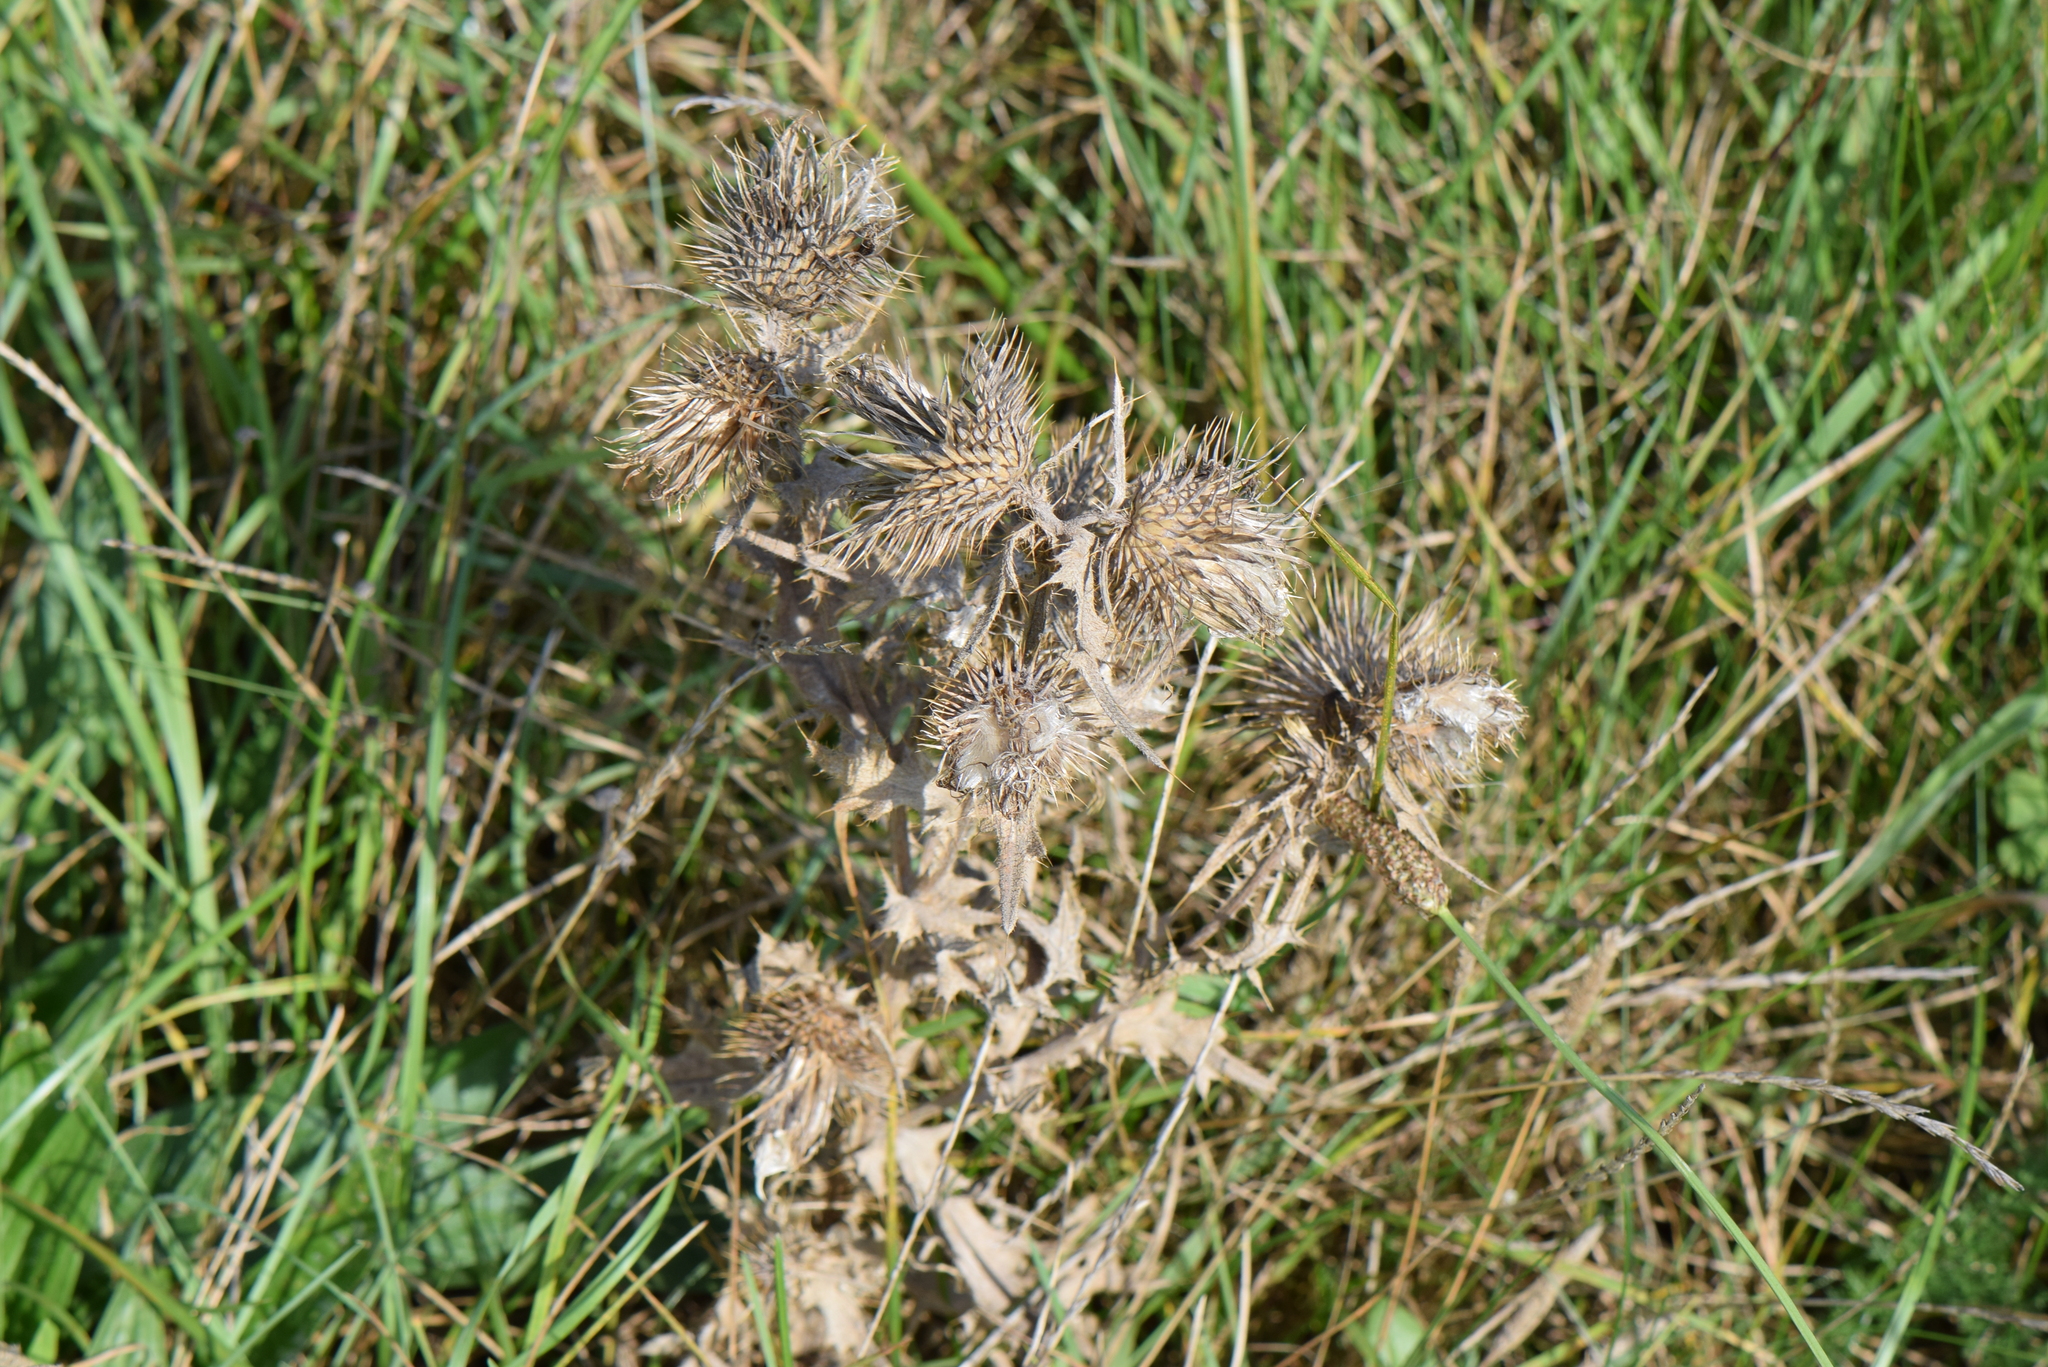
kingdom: Plantae
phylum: Tracheophyta
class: Magnoliopsida
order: Asterales
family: Asteraceae
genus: Cirsium
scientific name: Cirsium vulgare
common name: Bull thistle
